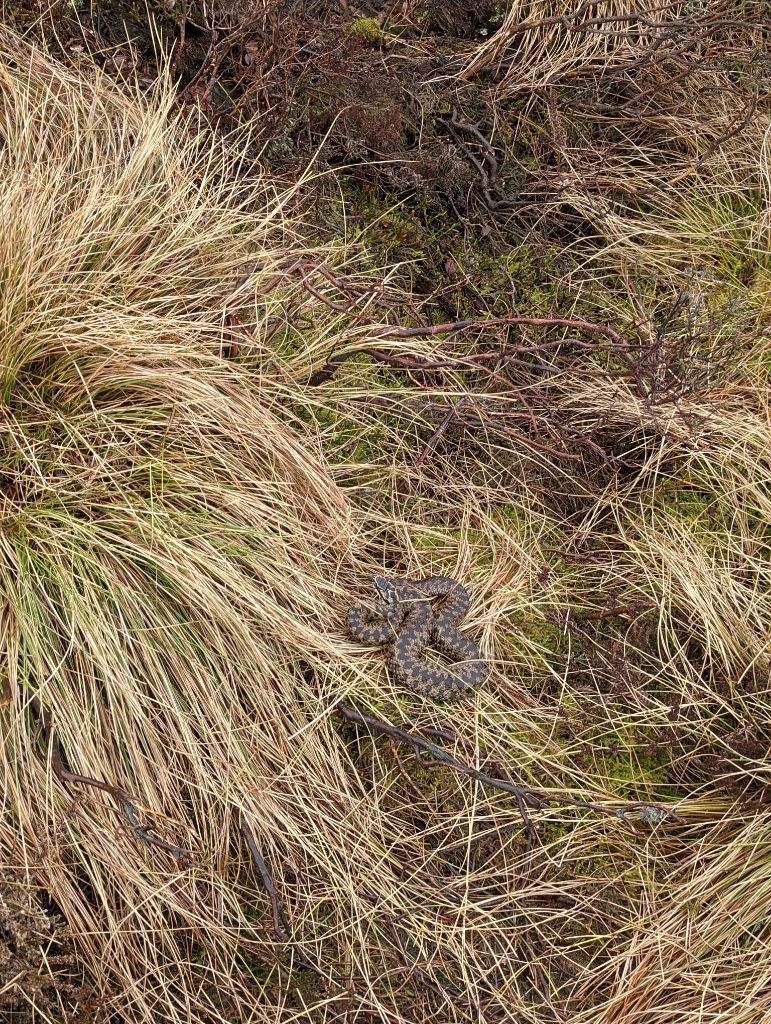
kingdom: Animalia
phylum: Chordata
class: Squamata
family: Viperidae
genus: Vipera
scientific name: Vipera berus
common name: Adder
